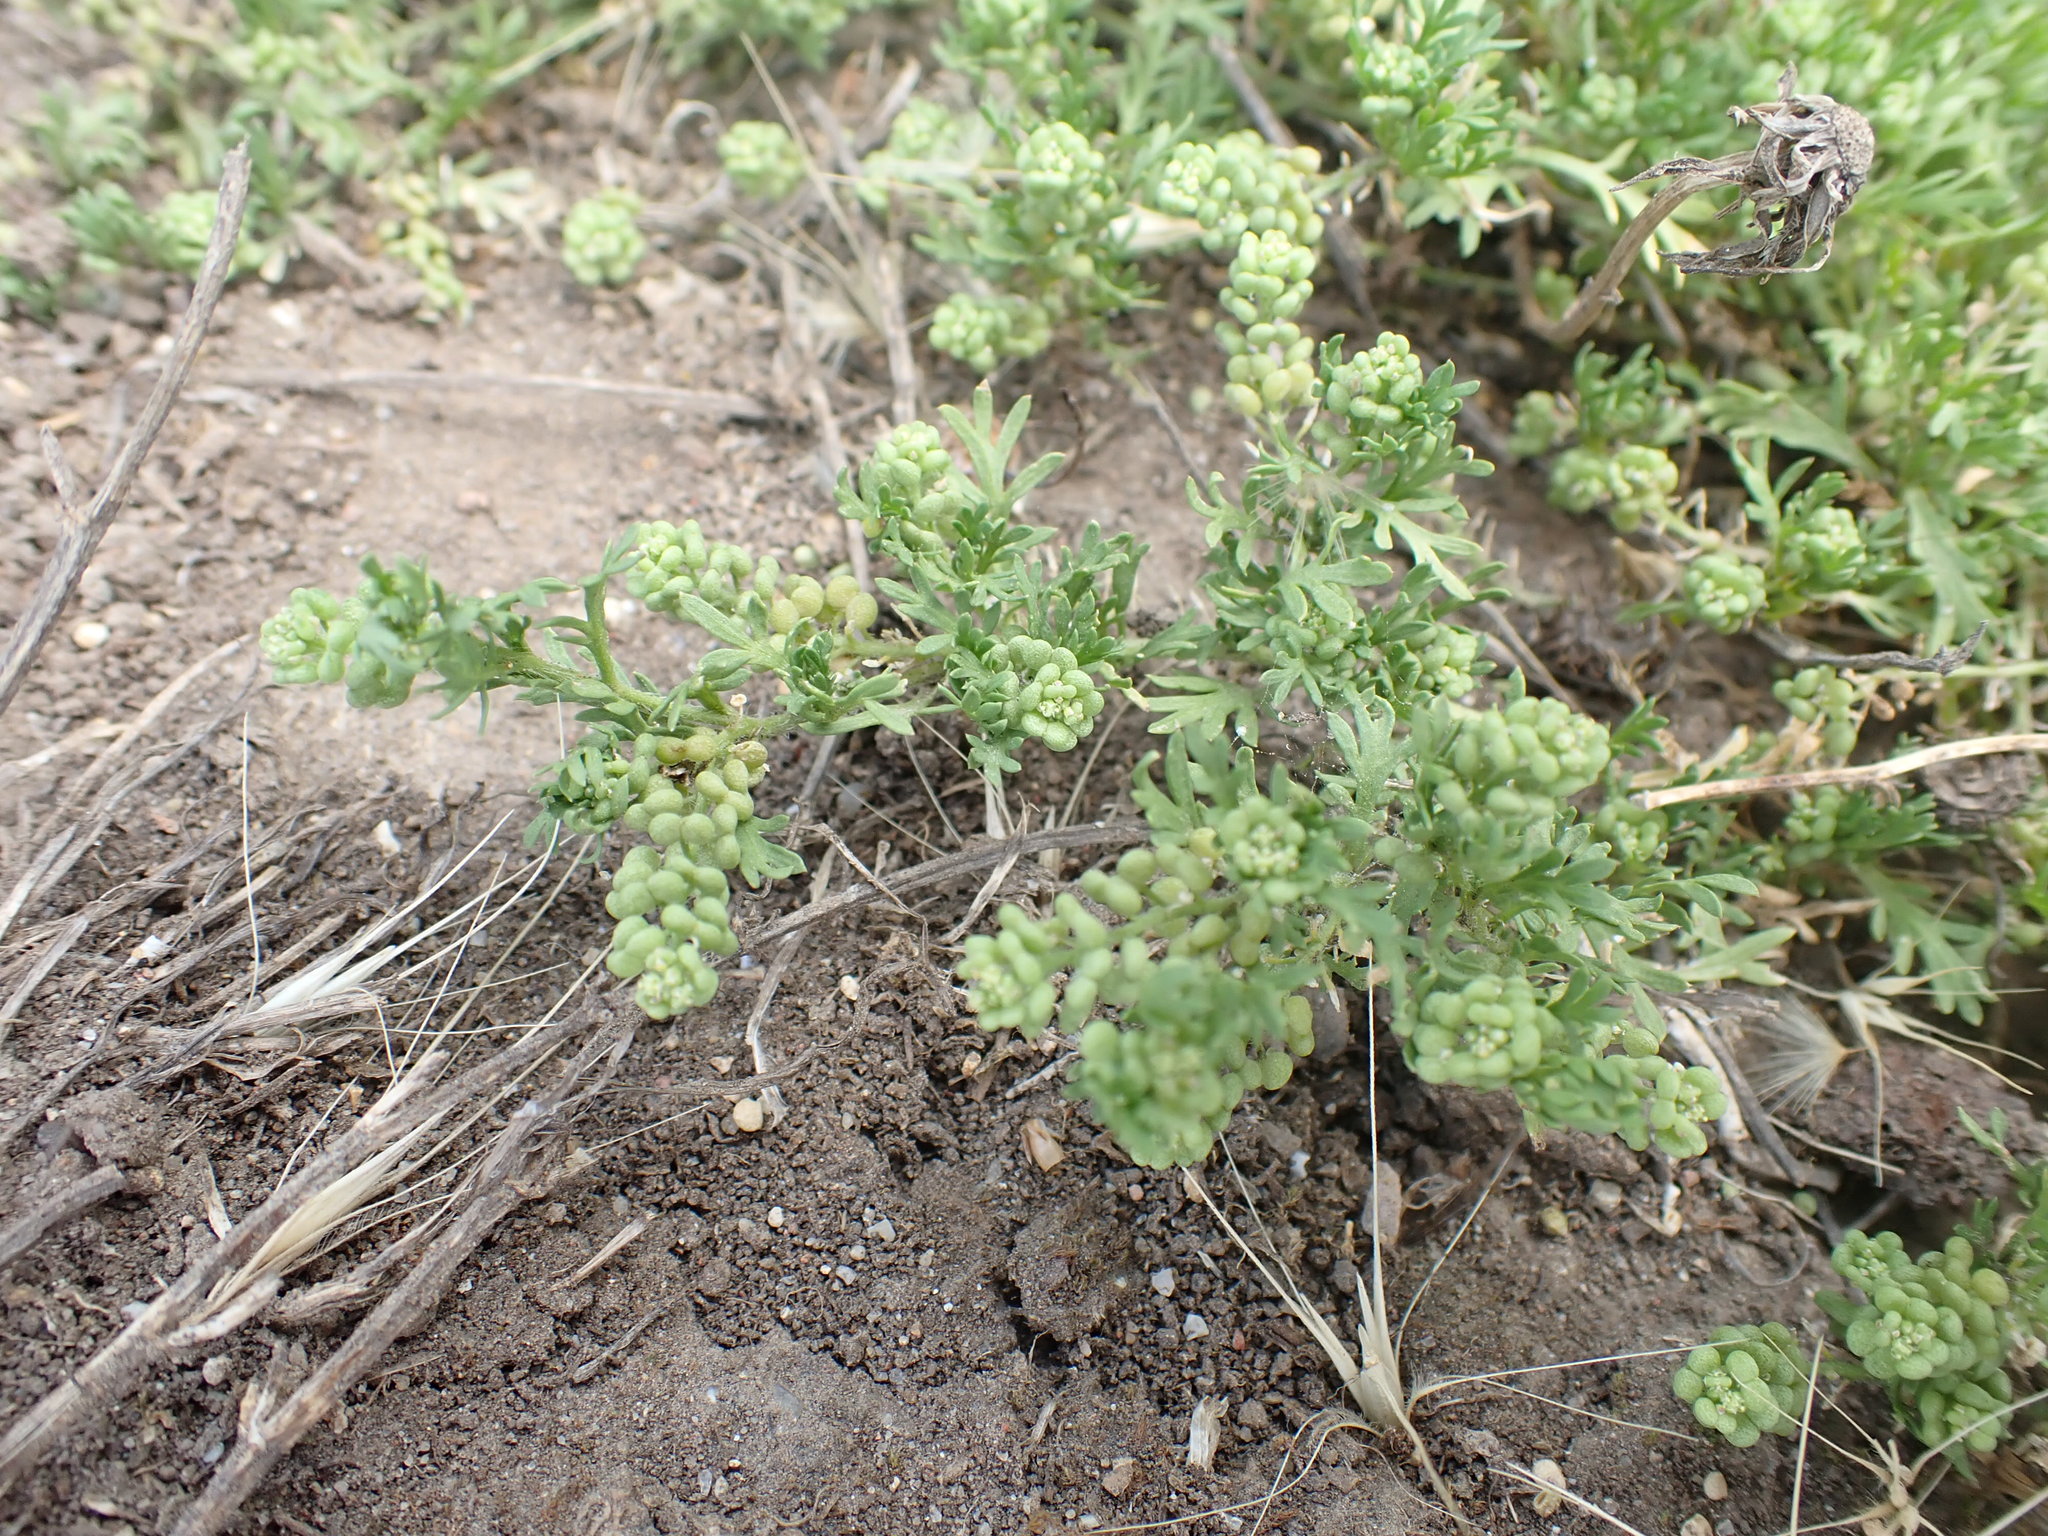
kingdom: Plantae
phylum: Tracheophyta
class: Magnoliopsida
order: Brassicales
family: Brassicaceae
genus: Lepidium
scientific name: Lepidium didymum
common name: Lesser swinecress
